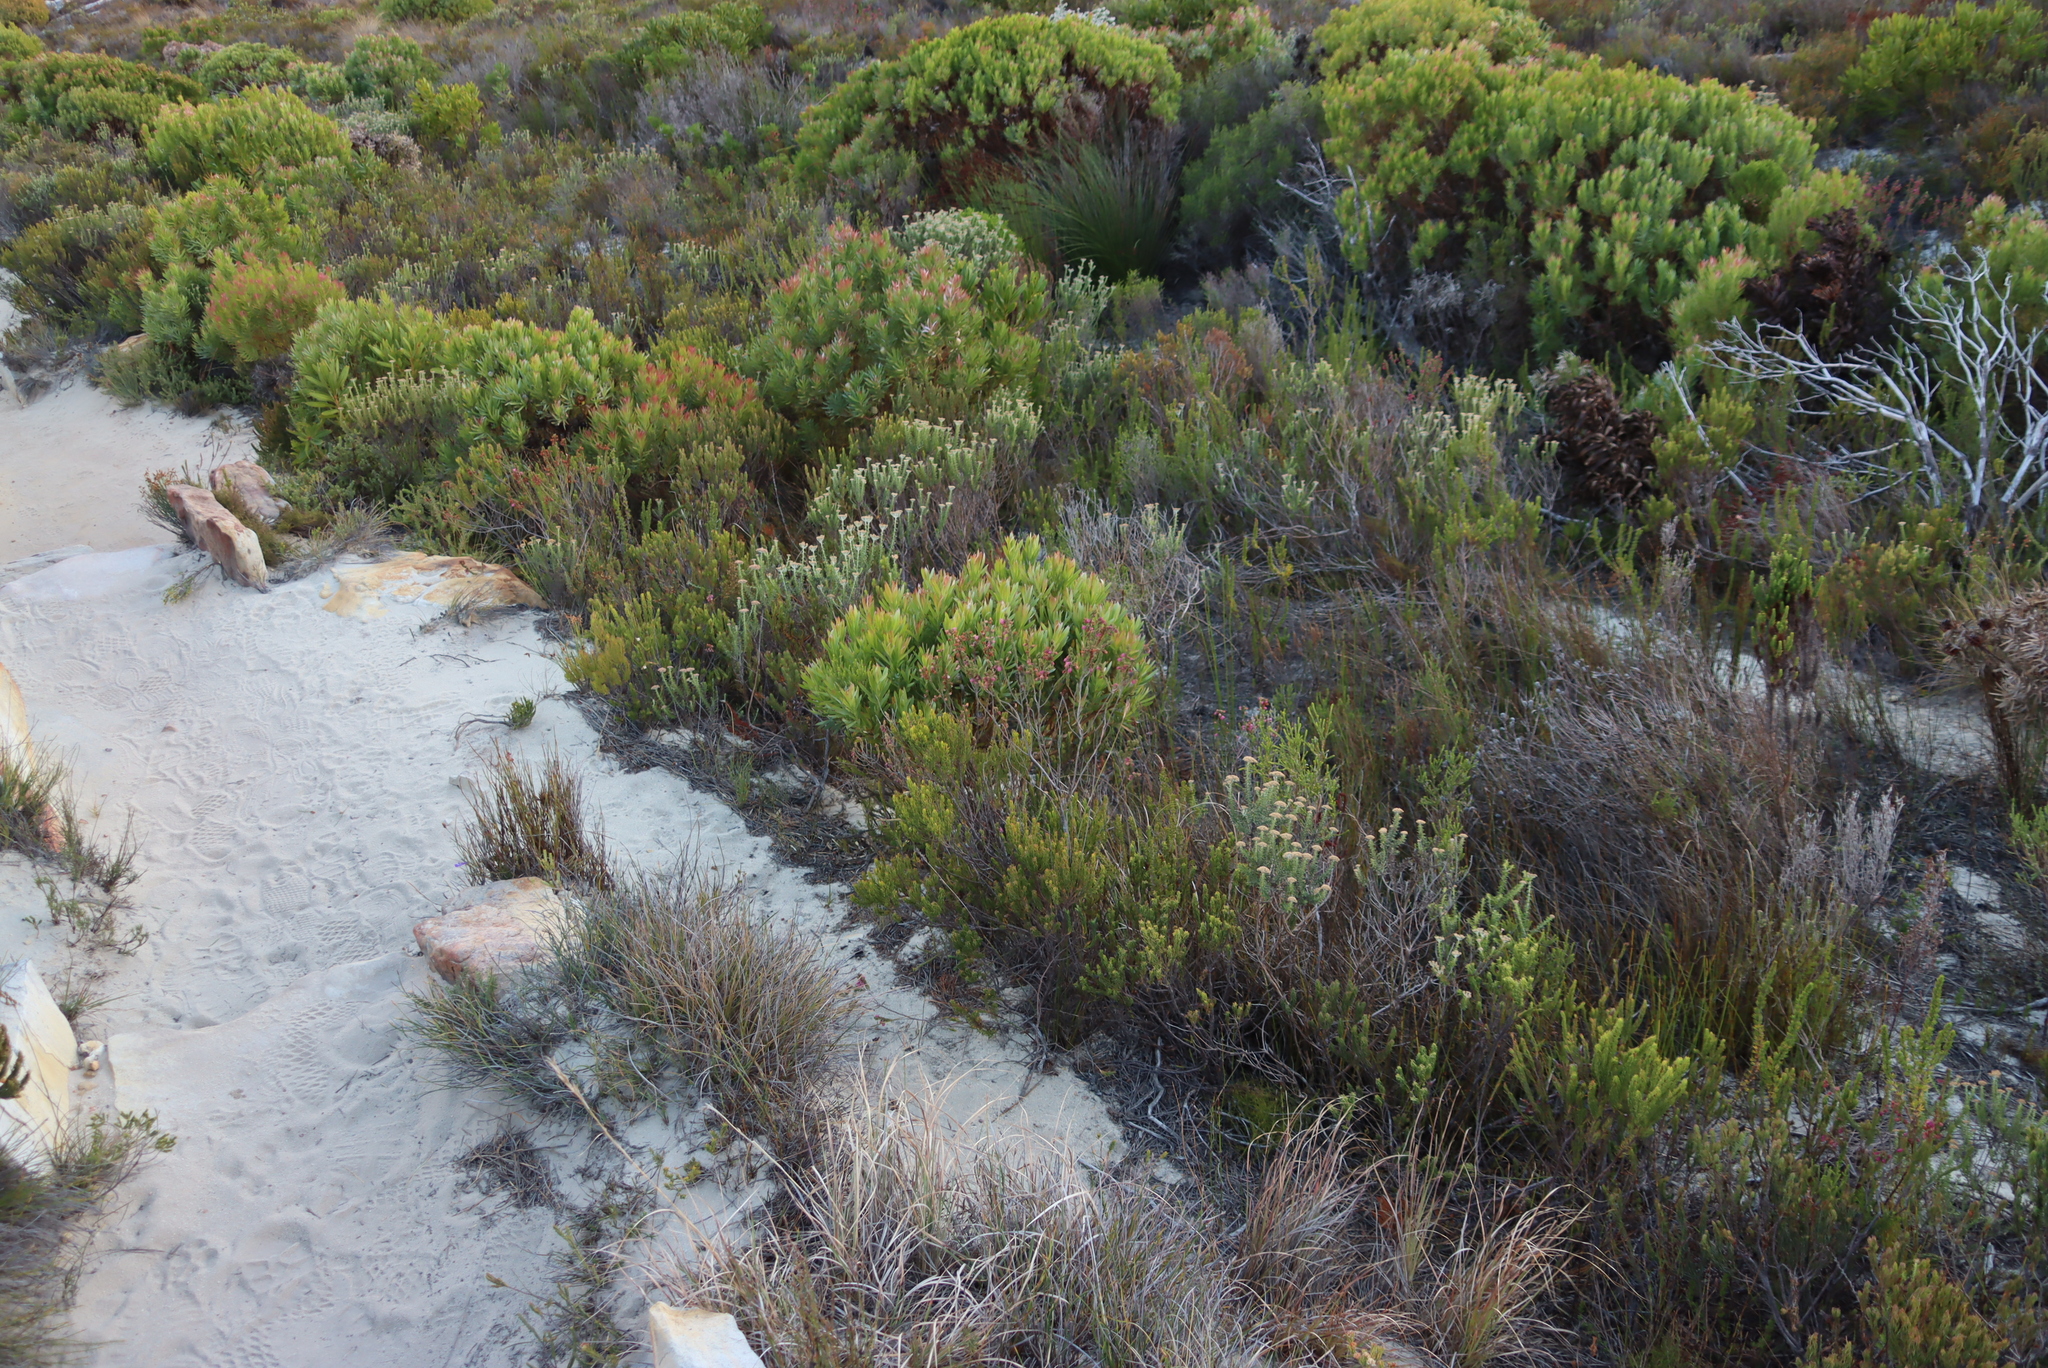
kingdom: Plantae
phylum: Tracheophyta
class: Magnoliopsida
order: Proteales
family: Proteaceae
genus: Leucadendron
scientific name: Leucadendron xanthoconus
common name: Sickle-leaf conebush
